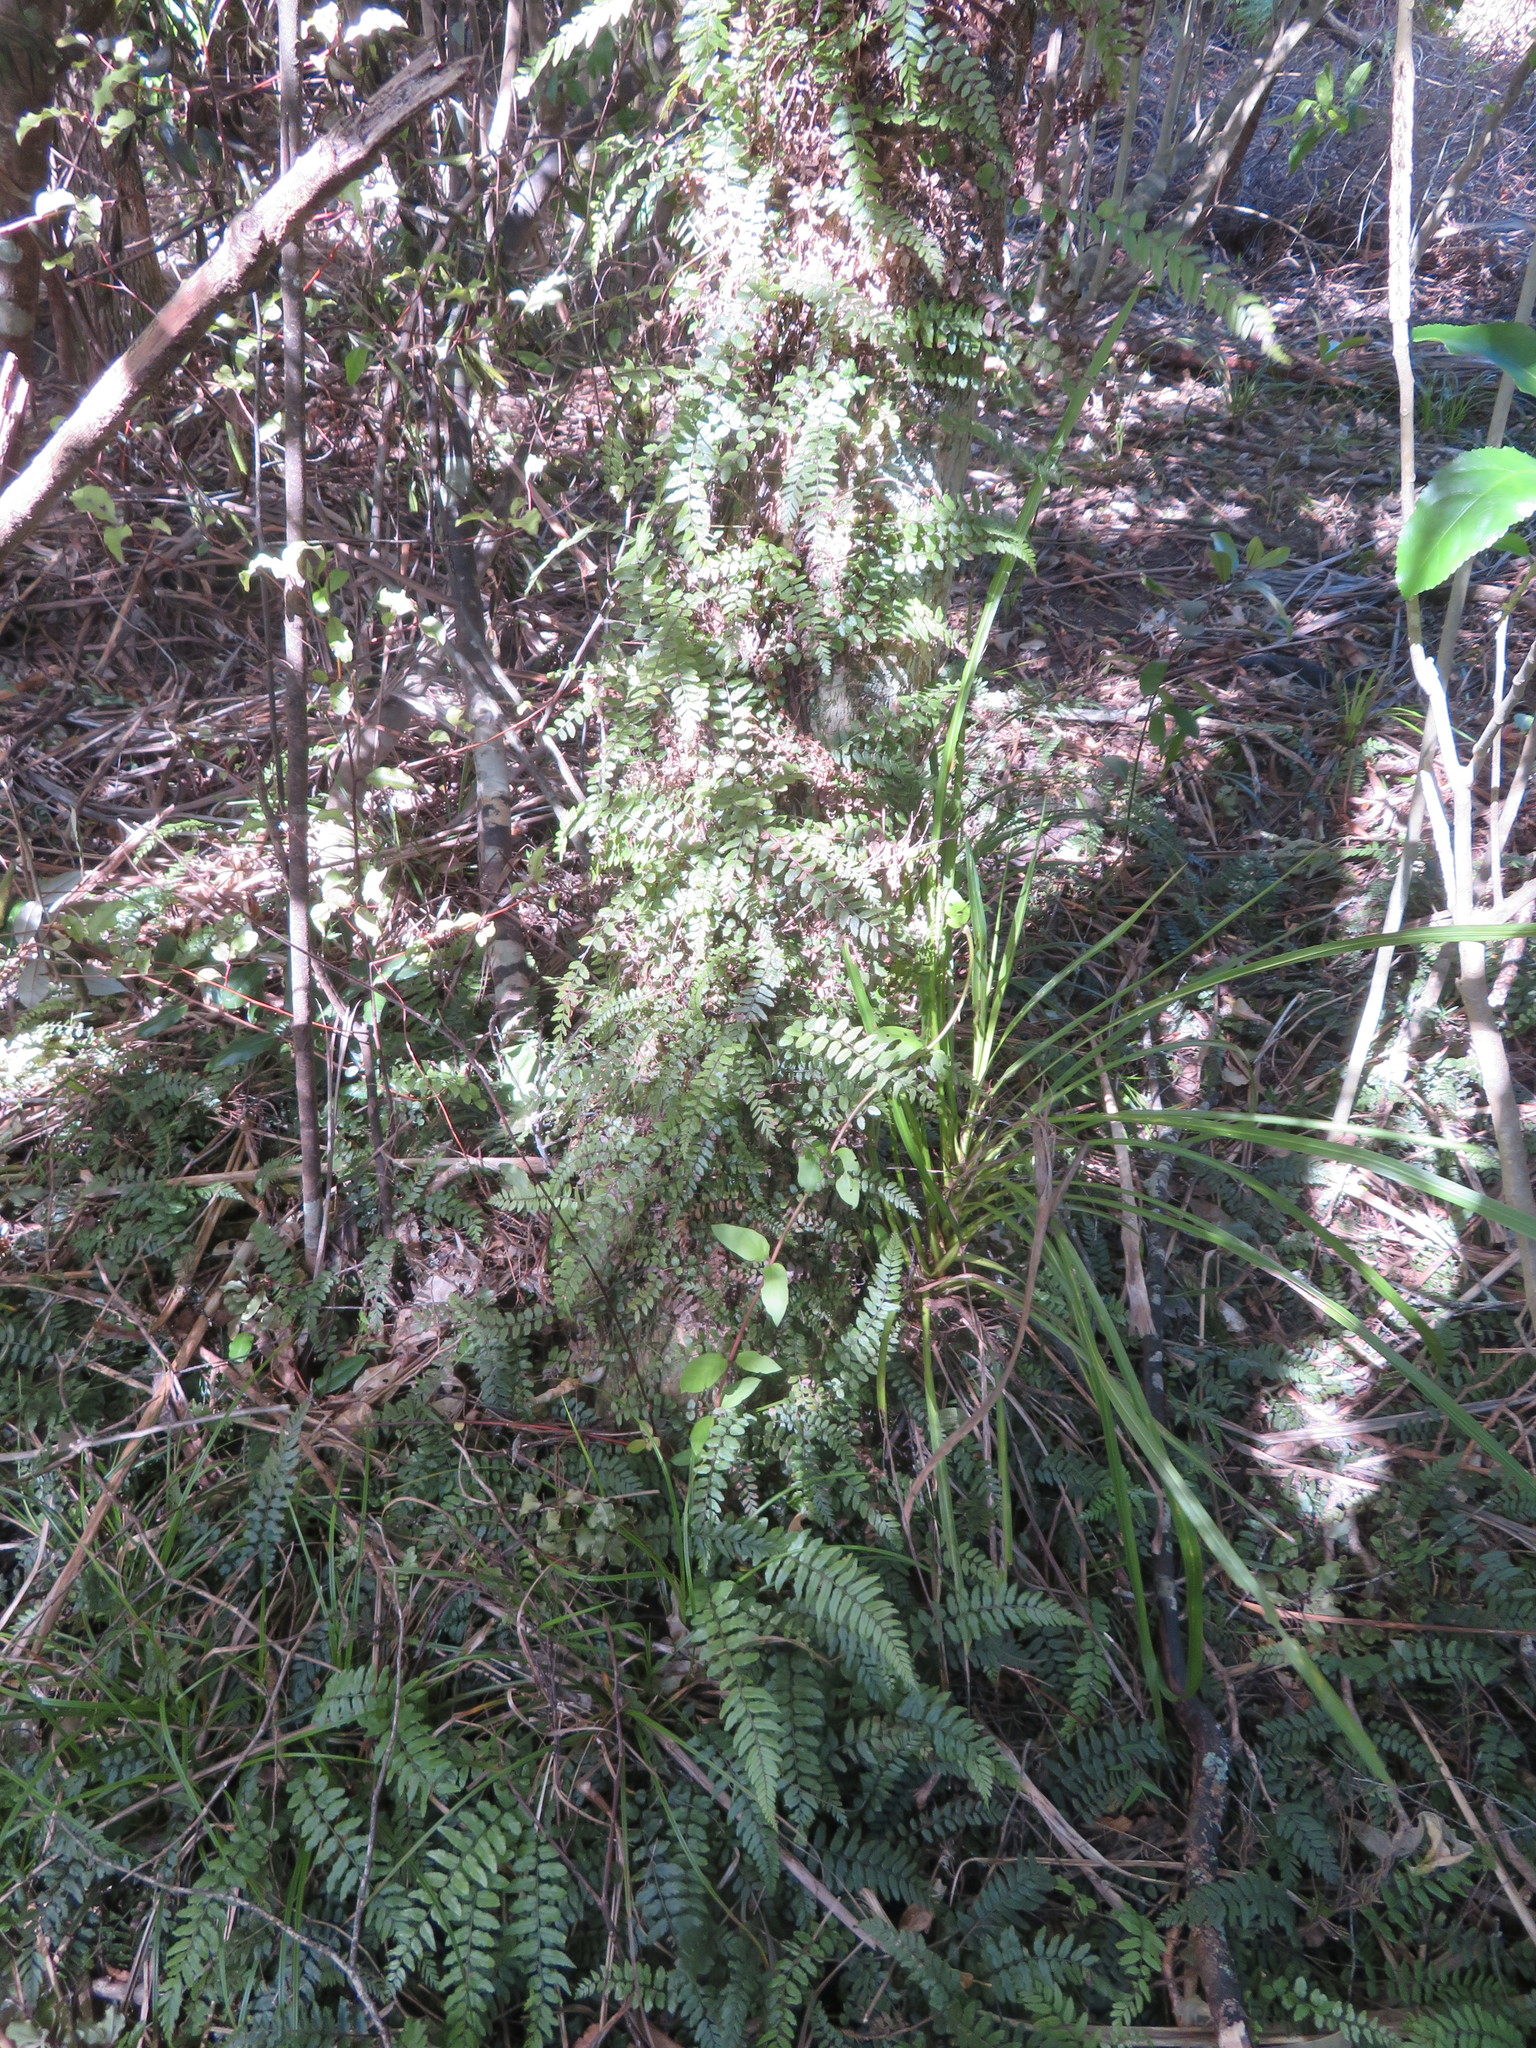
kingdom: Plantae
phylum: Tracheophyta
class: Magnoliopsida
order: Dipsacales
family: Caprifoliaceae
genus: Lonicera
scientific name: Lonicera japonica
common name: Japanese honeysuckle
